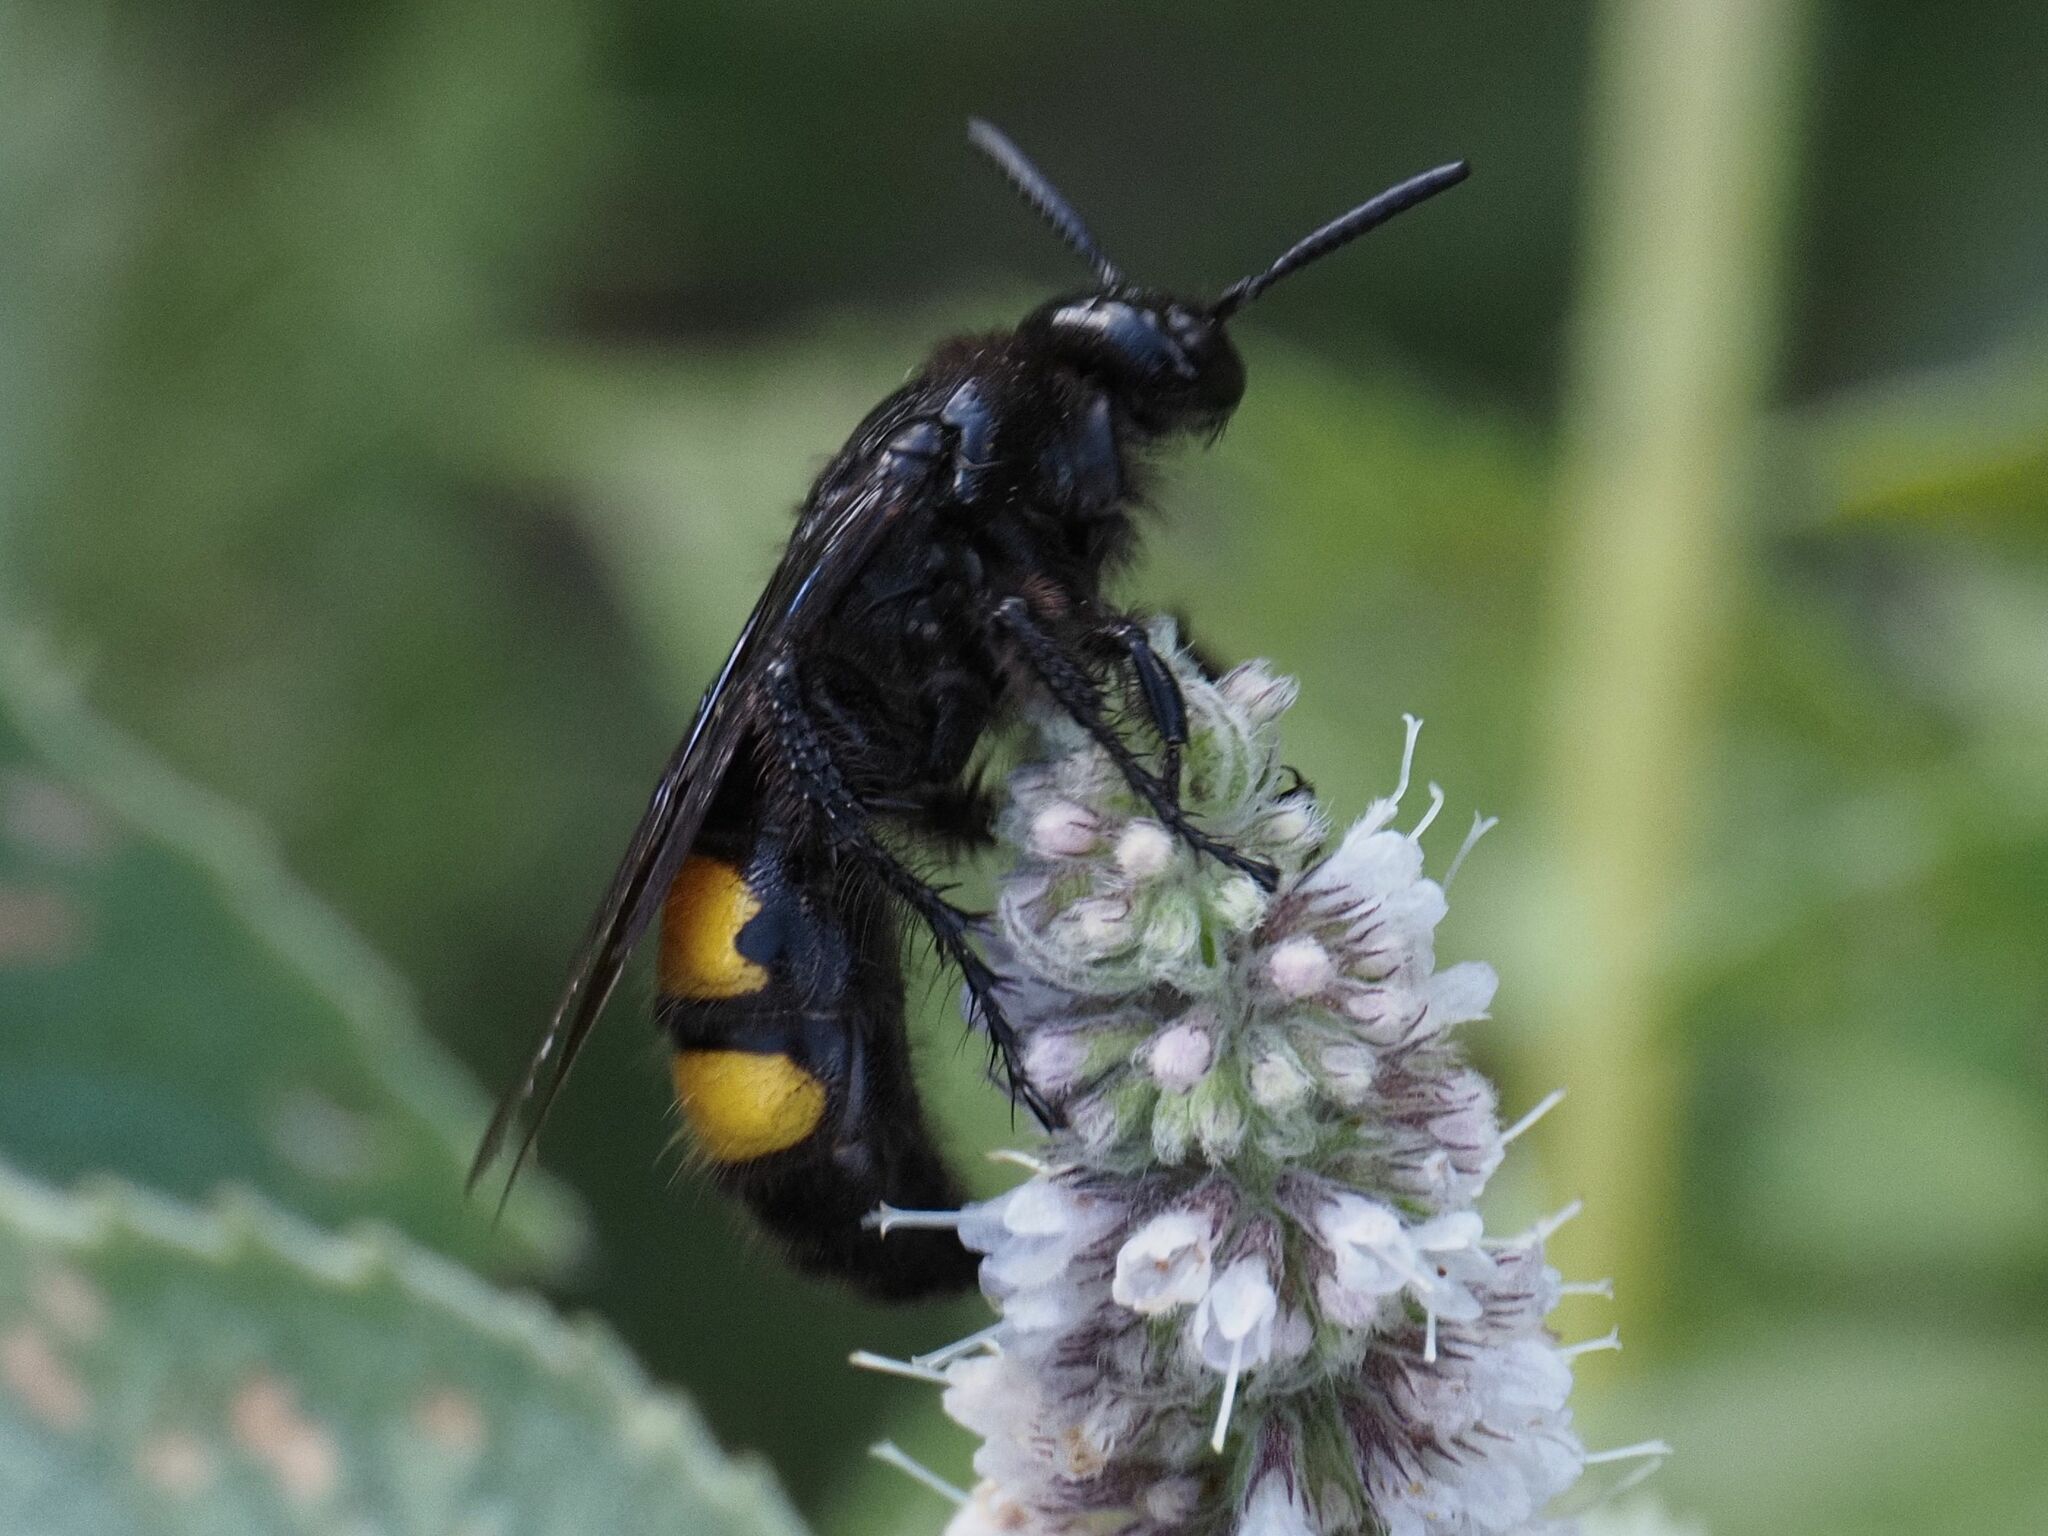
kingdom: Animalia
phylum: Arthropoda
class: Insecta
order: Hymenoptera
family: Scoliidae
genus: Scolia
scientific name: Scolia hirta
